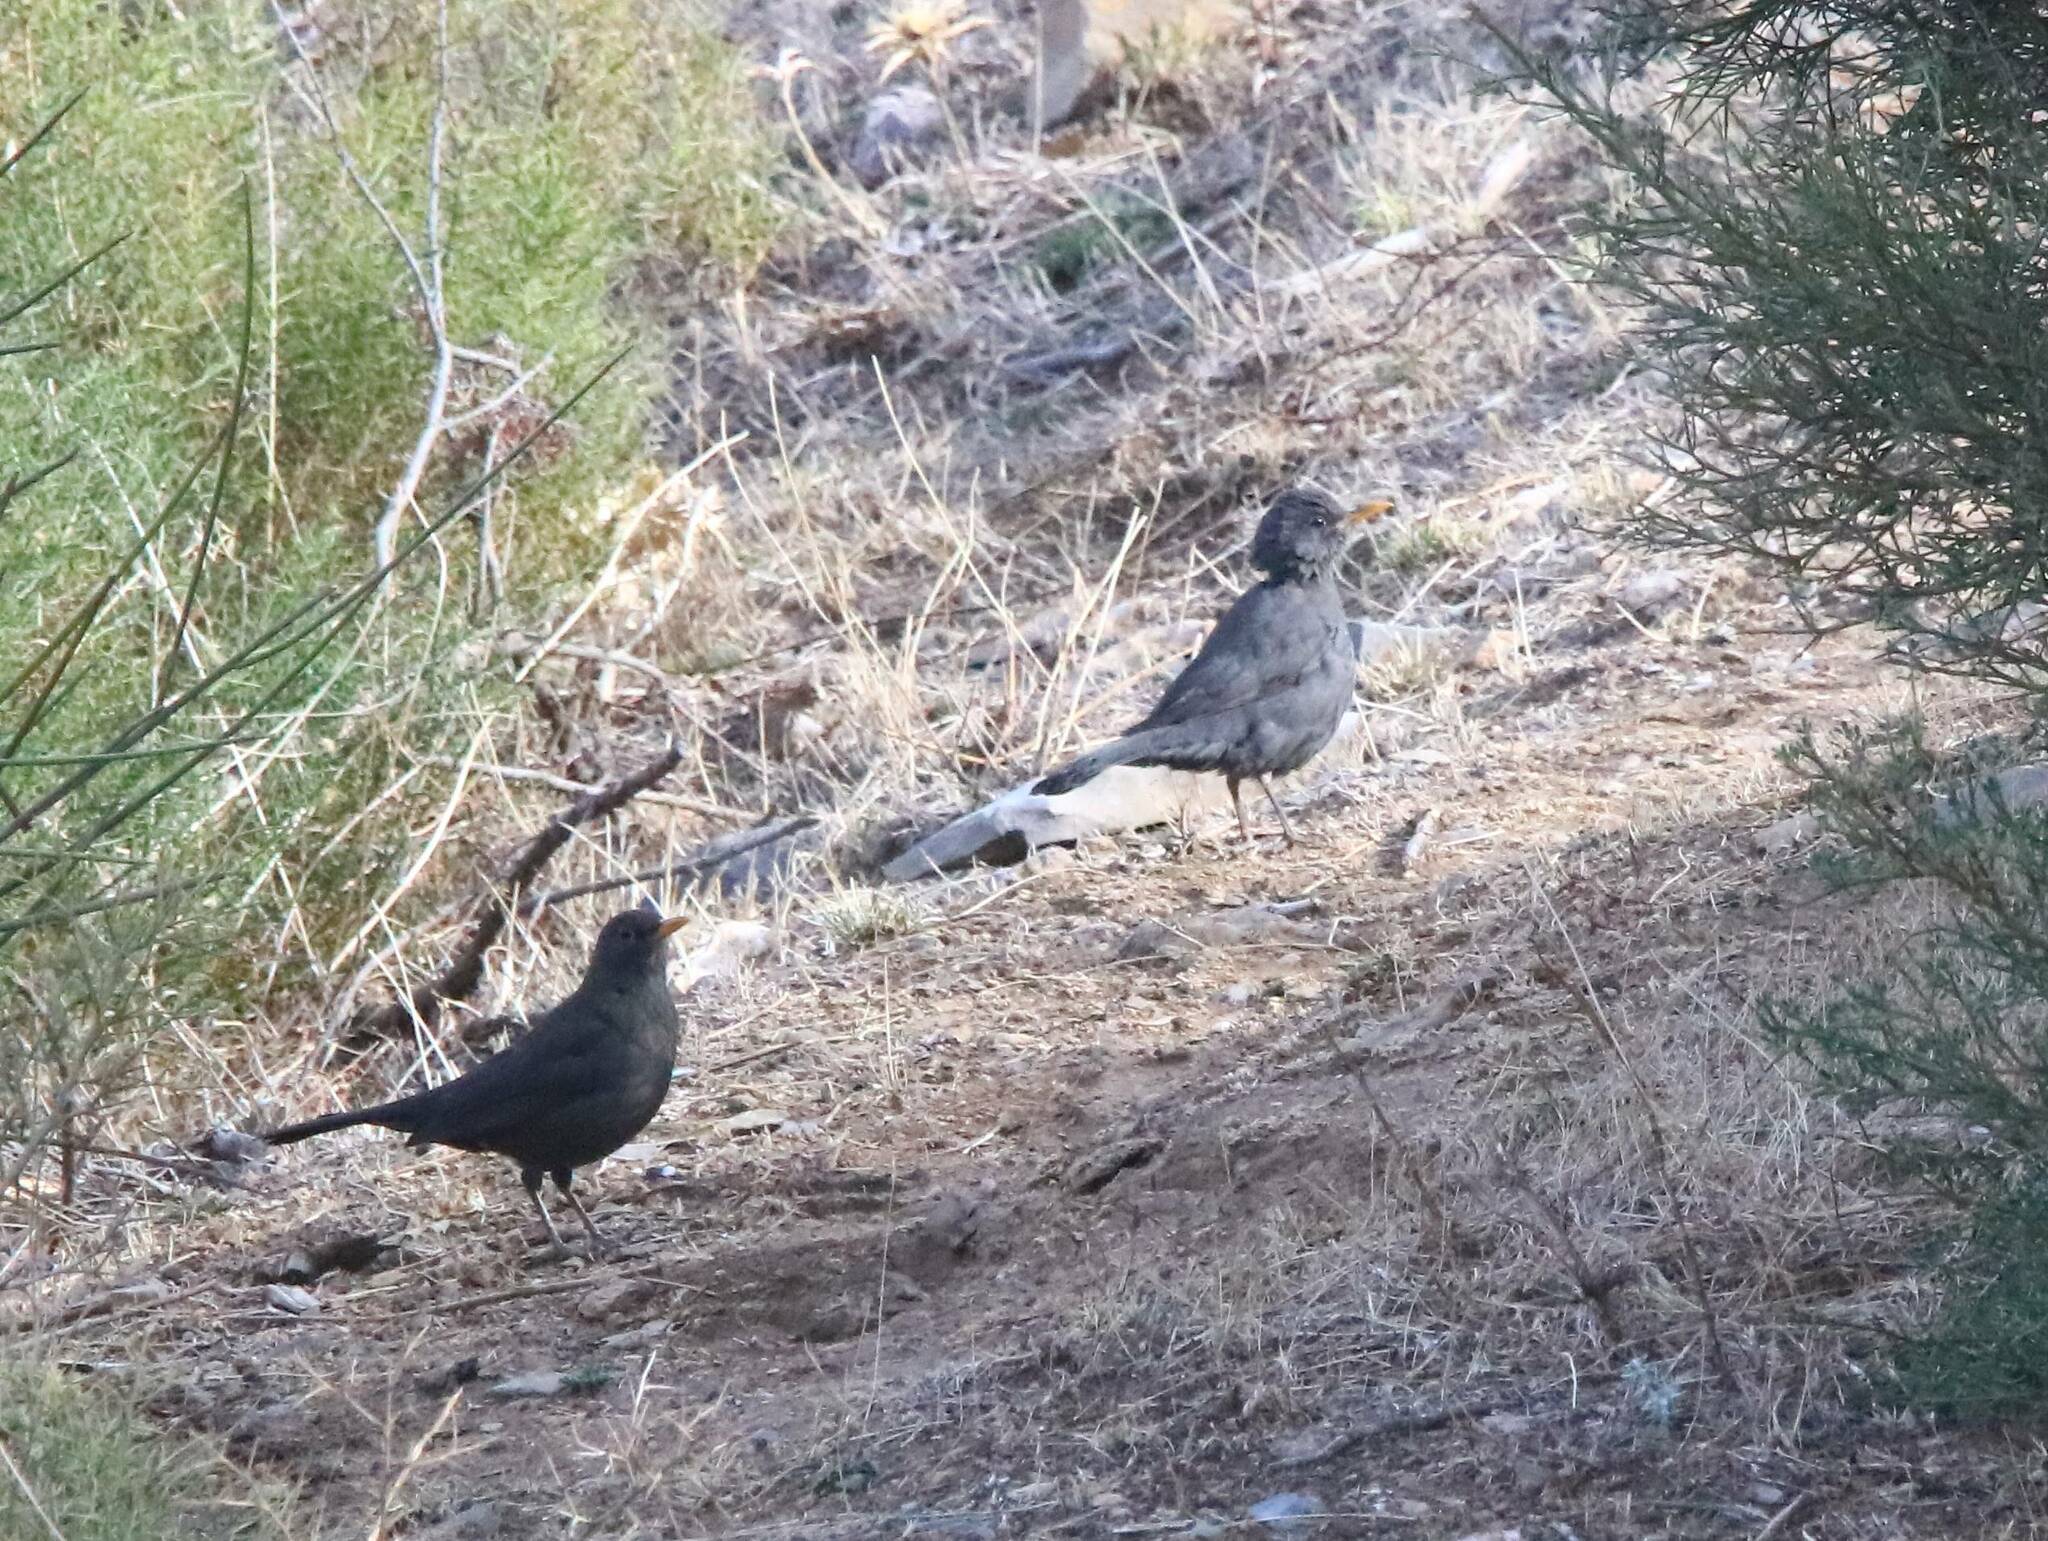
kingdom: Animalia
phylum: Chordata
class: Aves
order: Passeriformes
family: Turdidae
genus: Turdus
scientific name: Turdus merula
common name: Common blackbird
